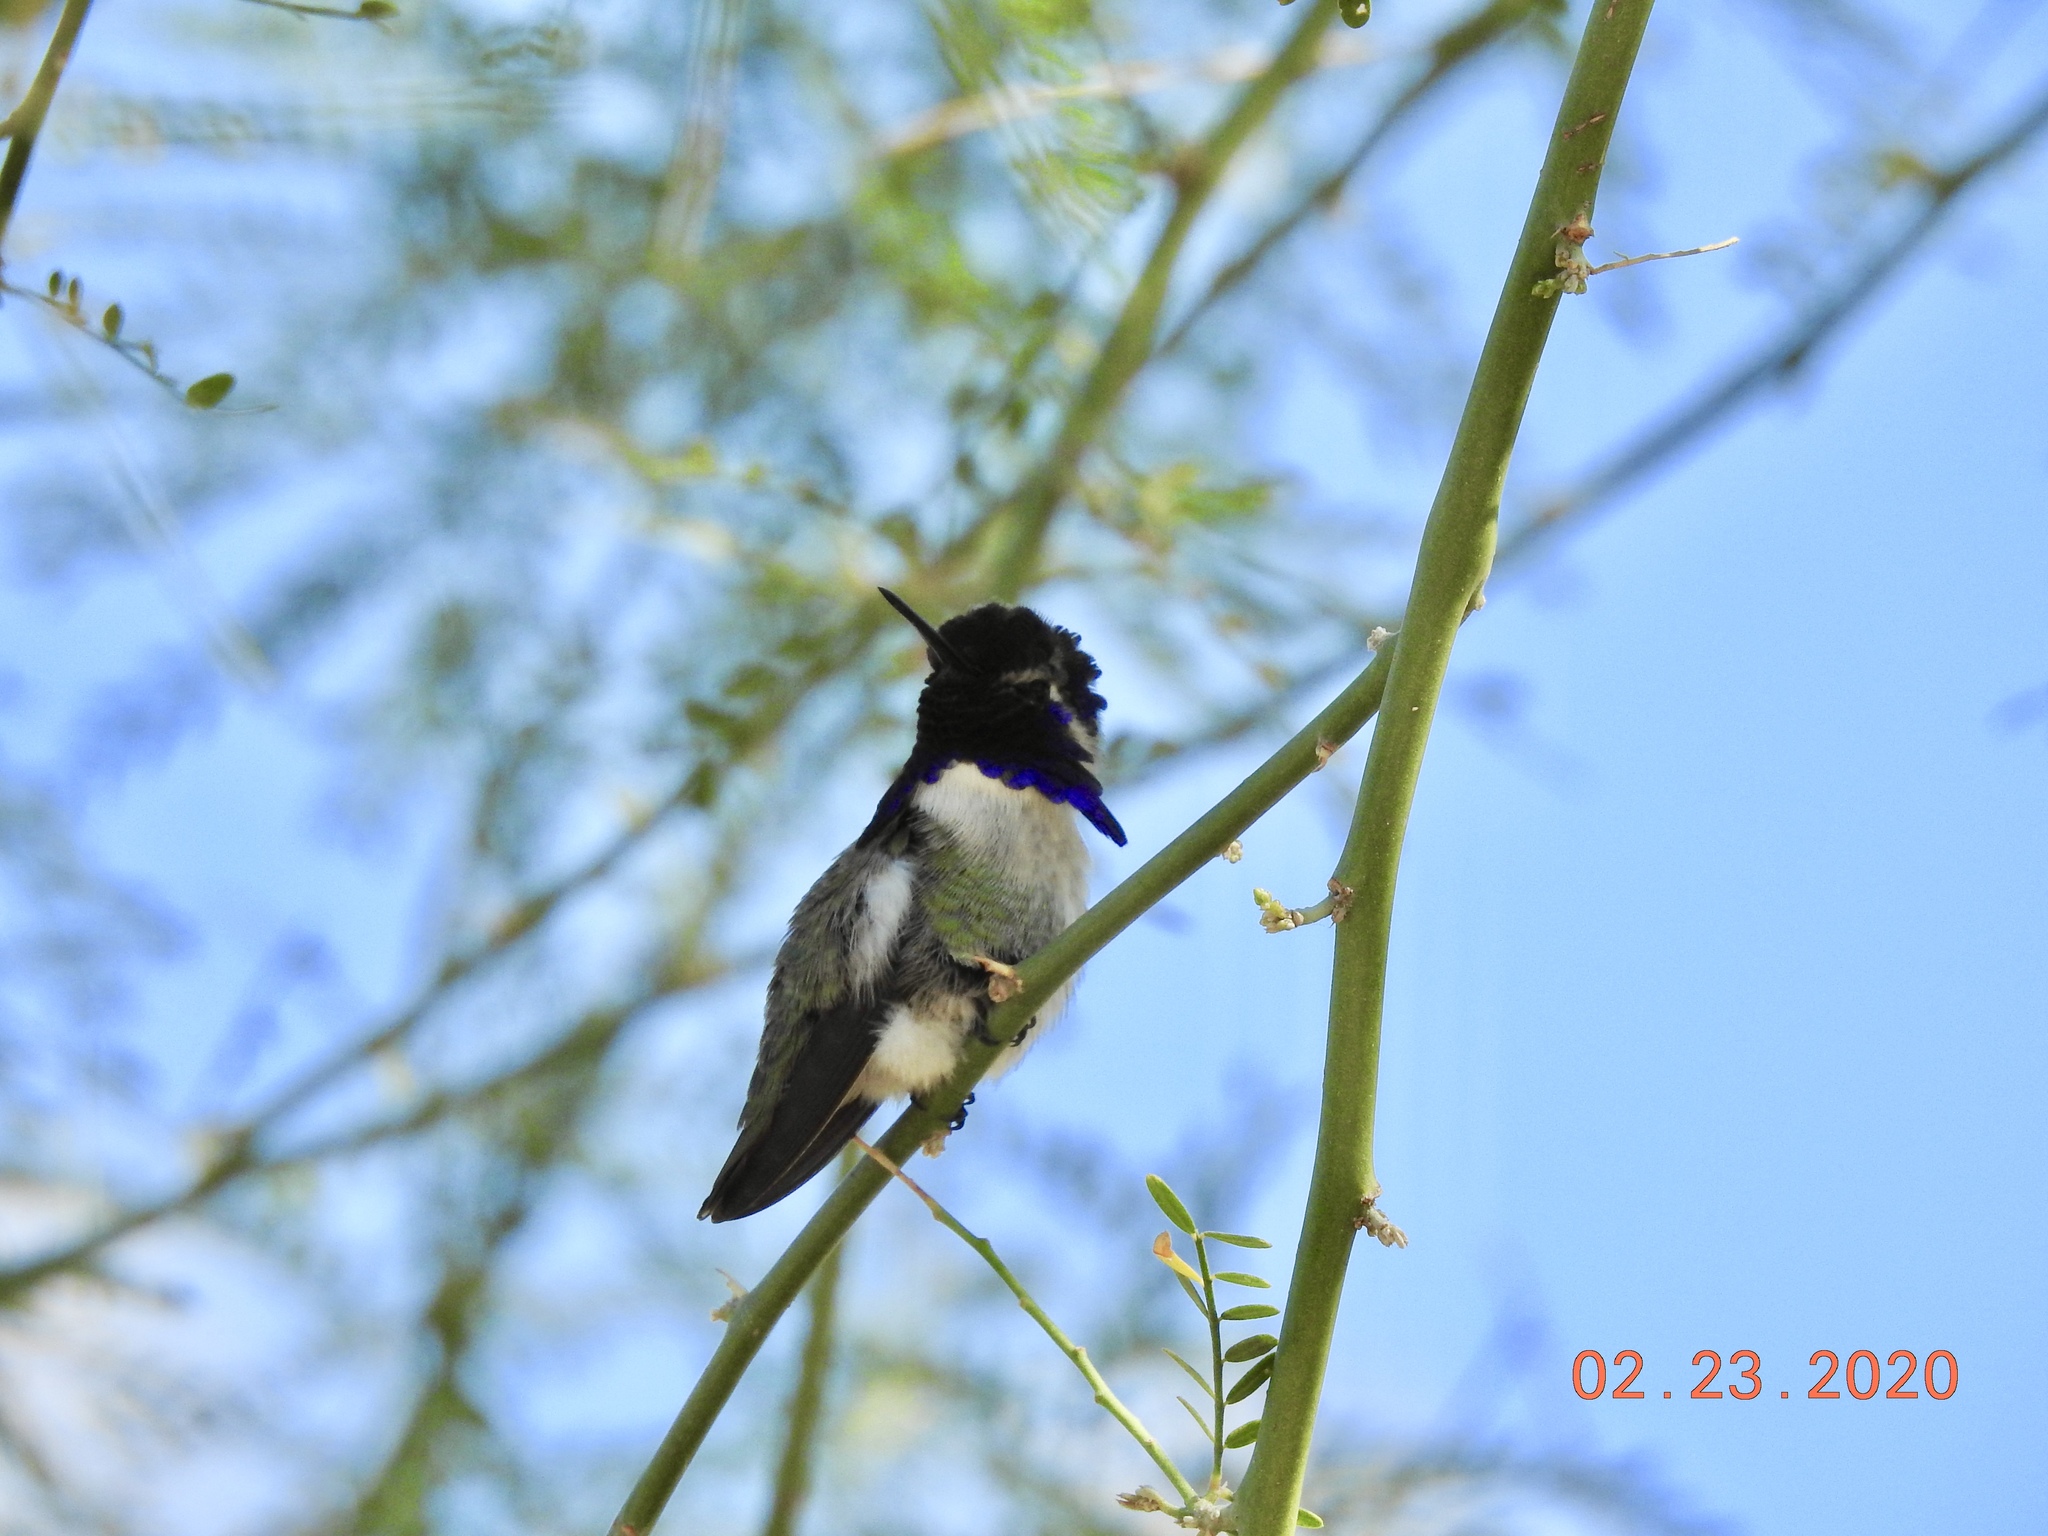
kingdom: Animalia
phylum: Chordata
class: Aves
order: Apodiformes
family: Trochilidae
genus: Calypte
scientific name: Calypte costae
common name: Costa's hummingbird
